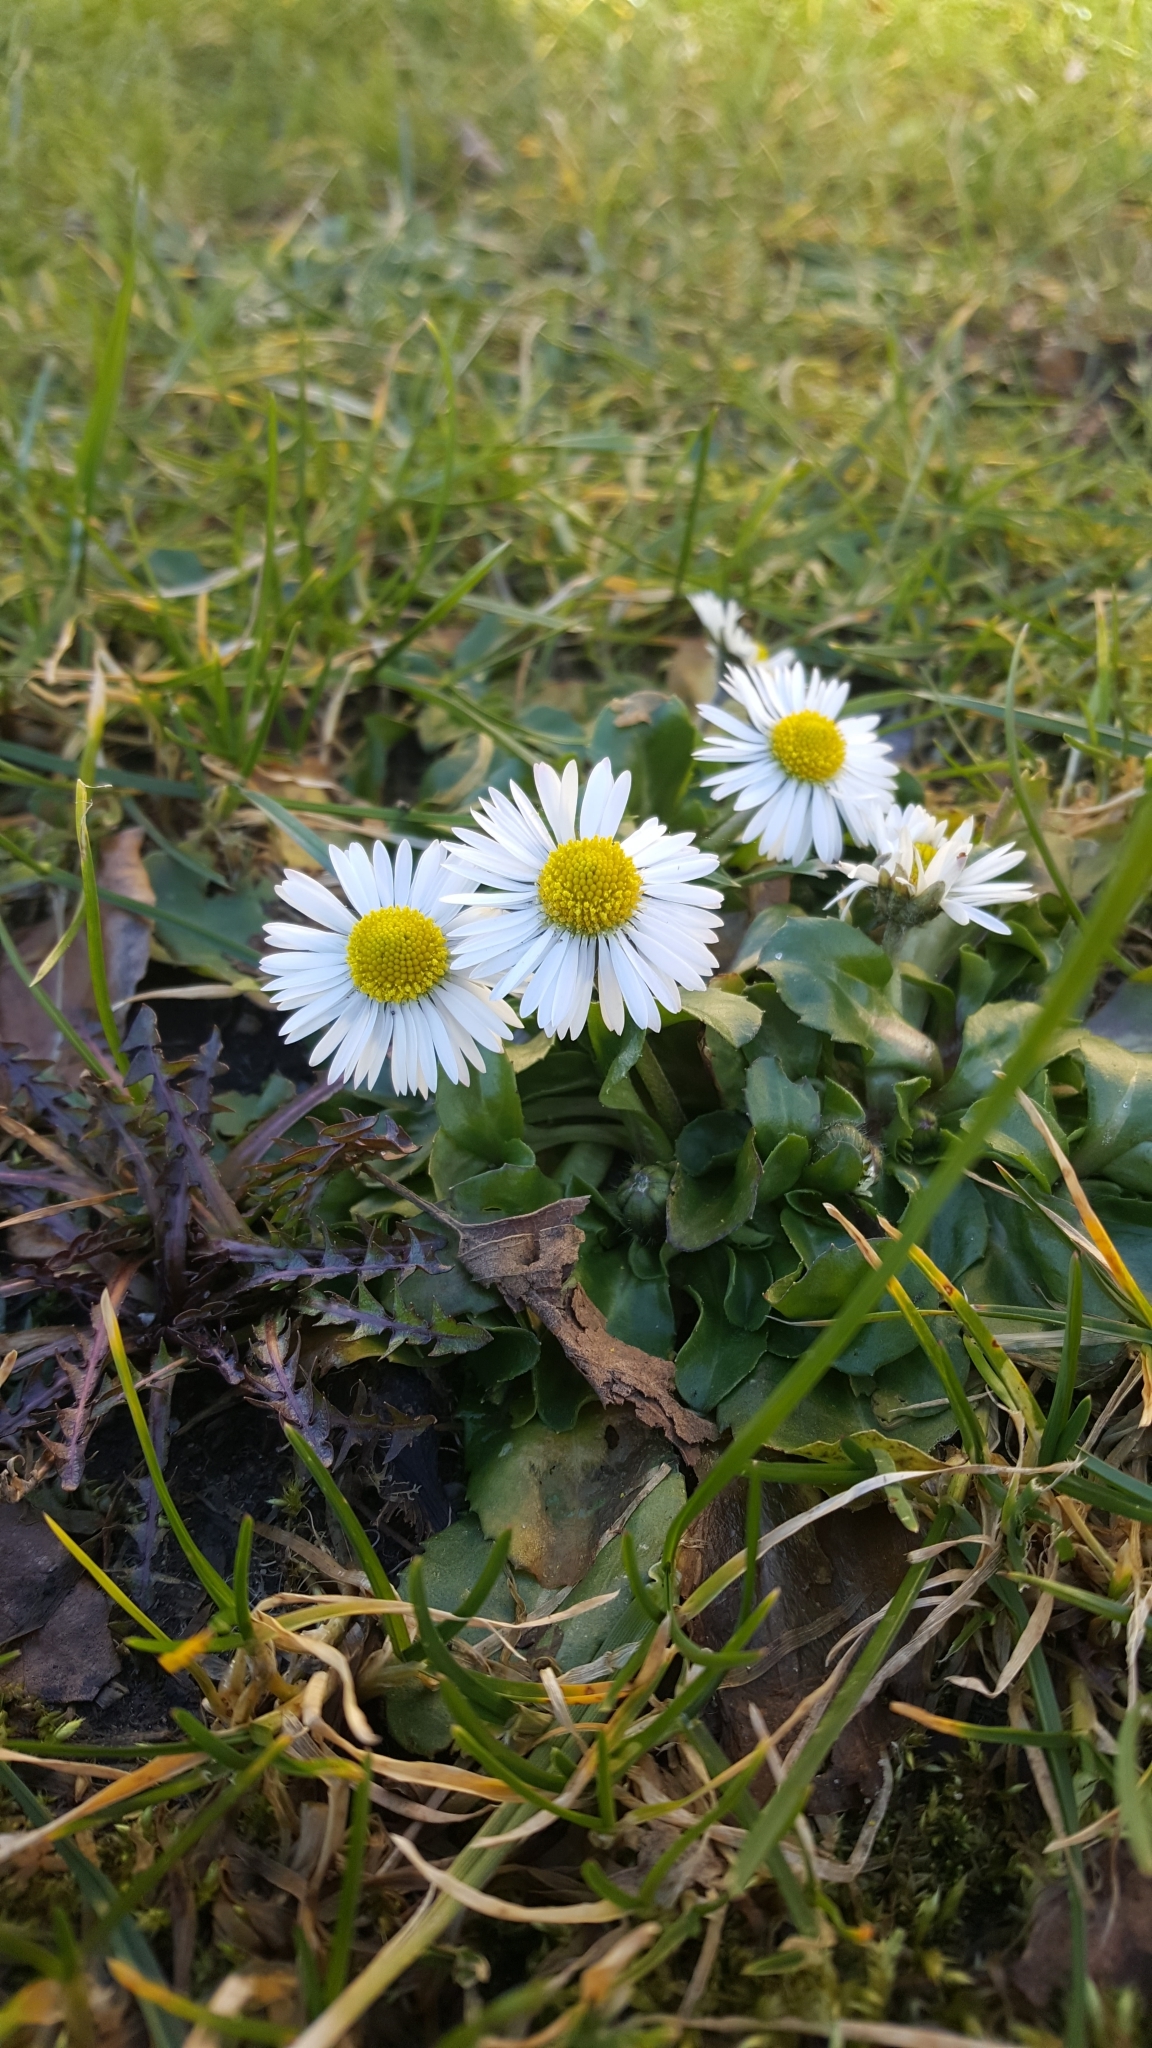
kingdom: Plantae
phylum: Tracheophyta
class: Magnoliopsida
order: Asterales
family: Asteraceae
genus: Bellis
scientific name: Bellis perennis
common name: Lawndaisy
